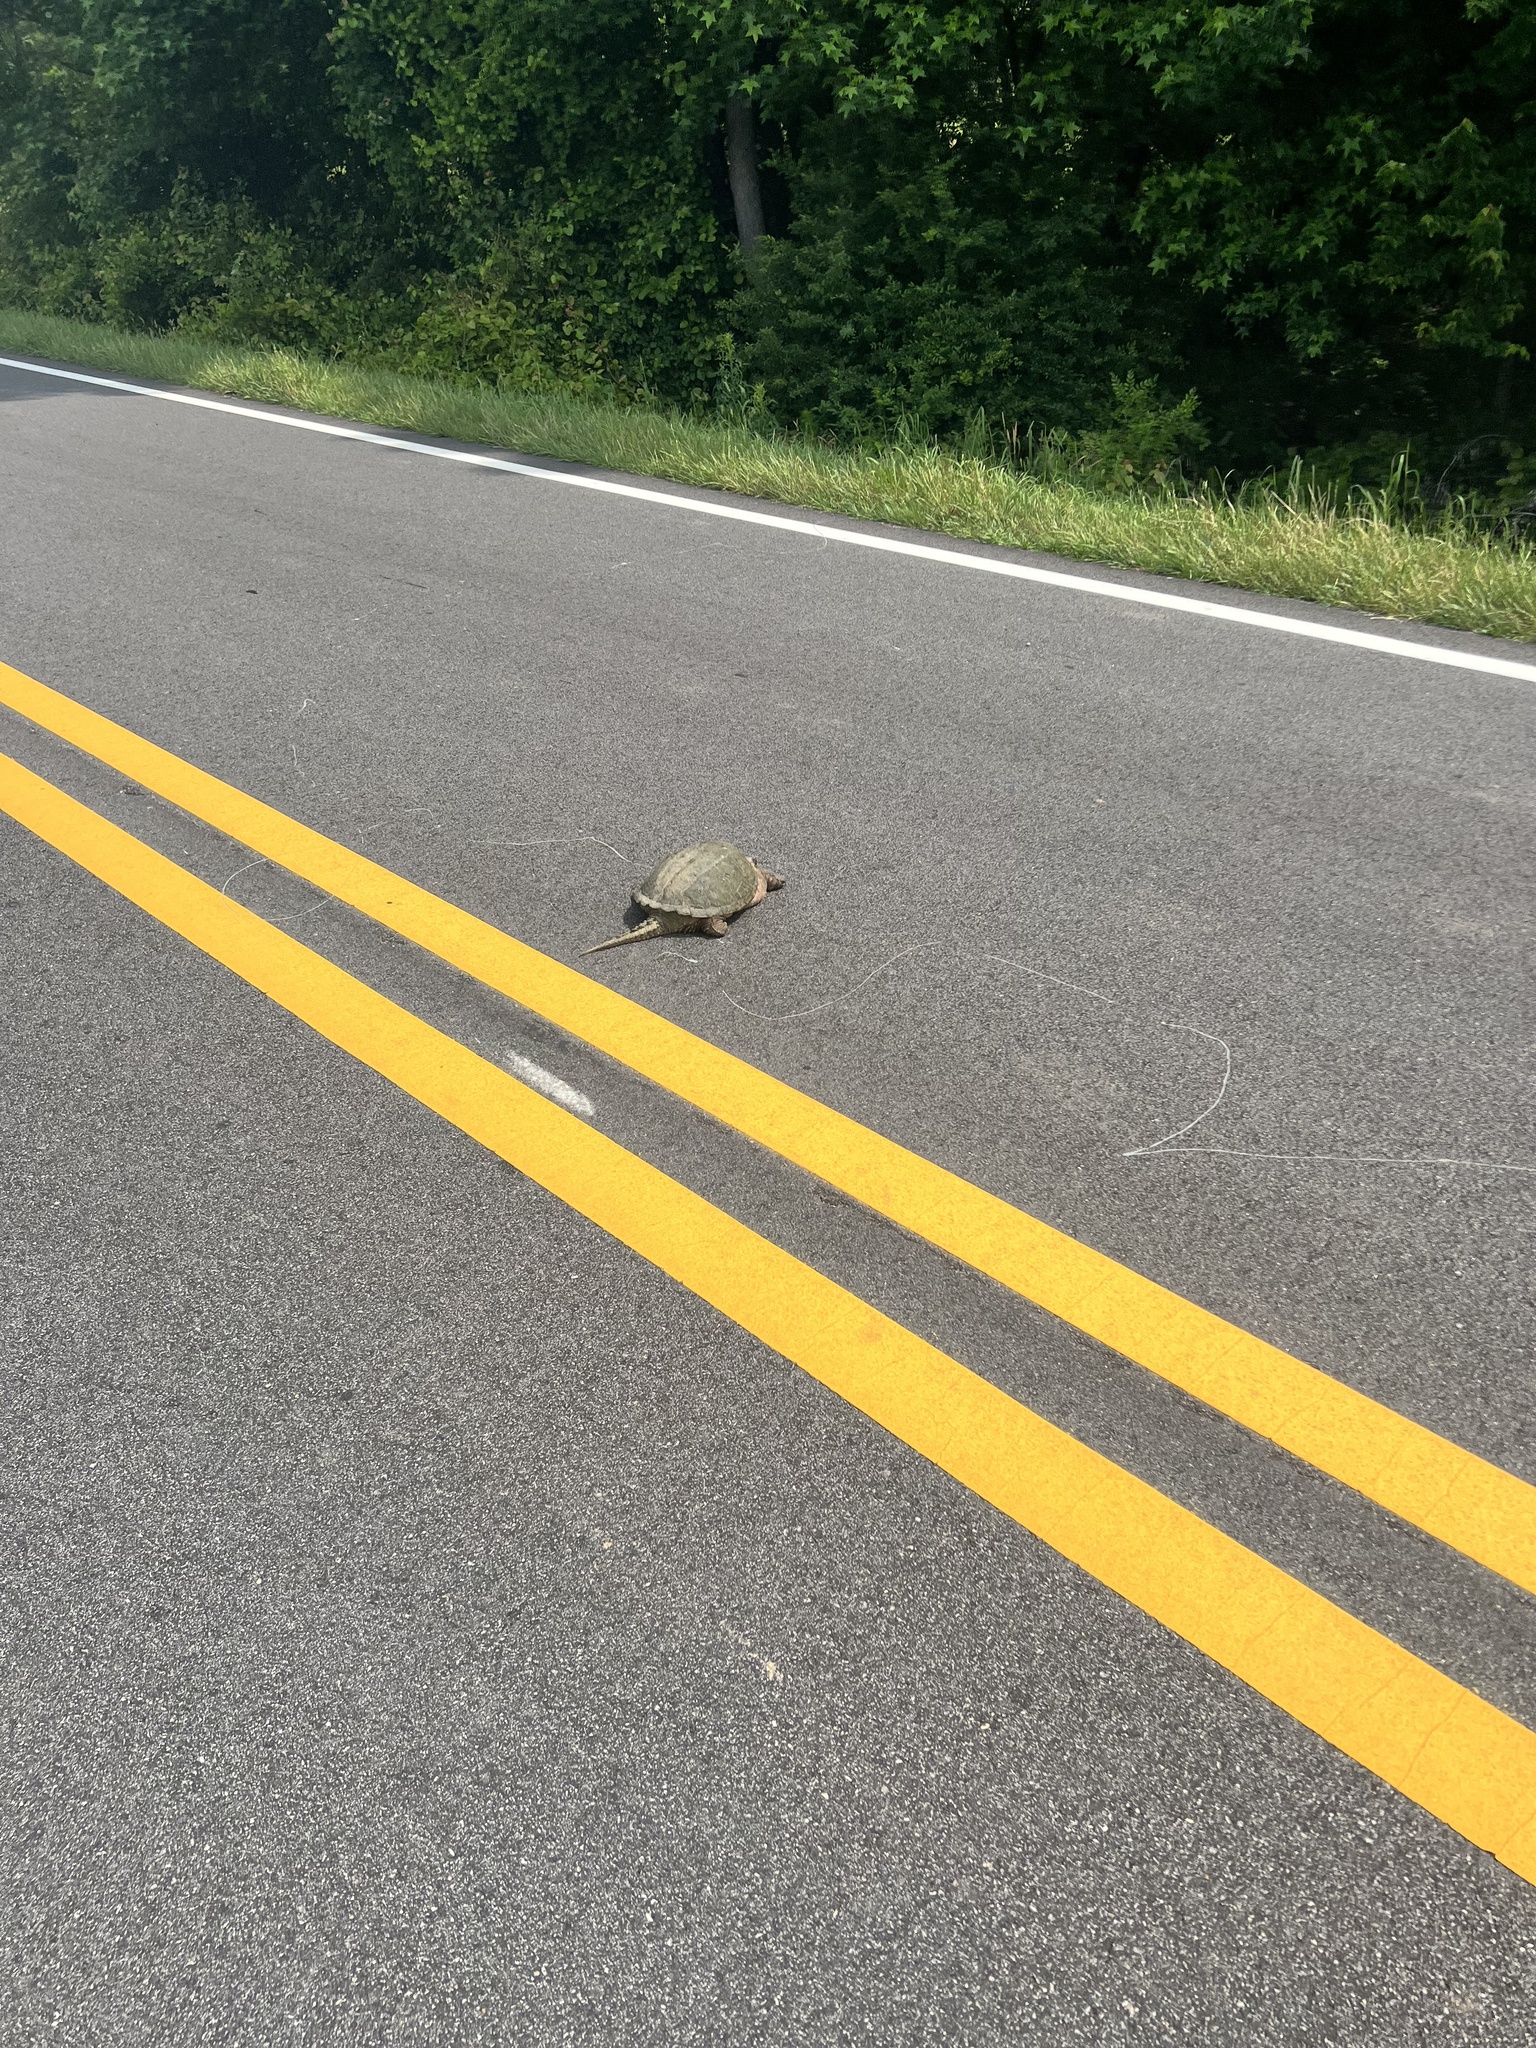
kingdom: Animalia
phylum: Chordata
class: Testudines
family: Chelydridae
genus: Chelydra
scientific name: Chelydra serpentina
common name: Common snapping turtle
